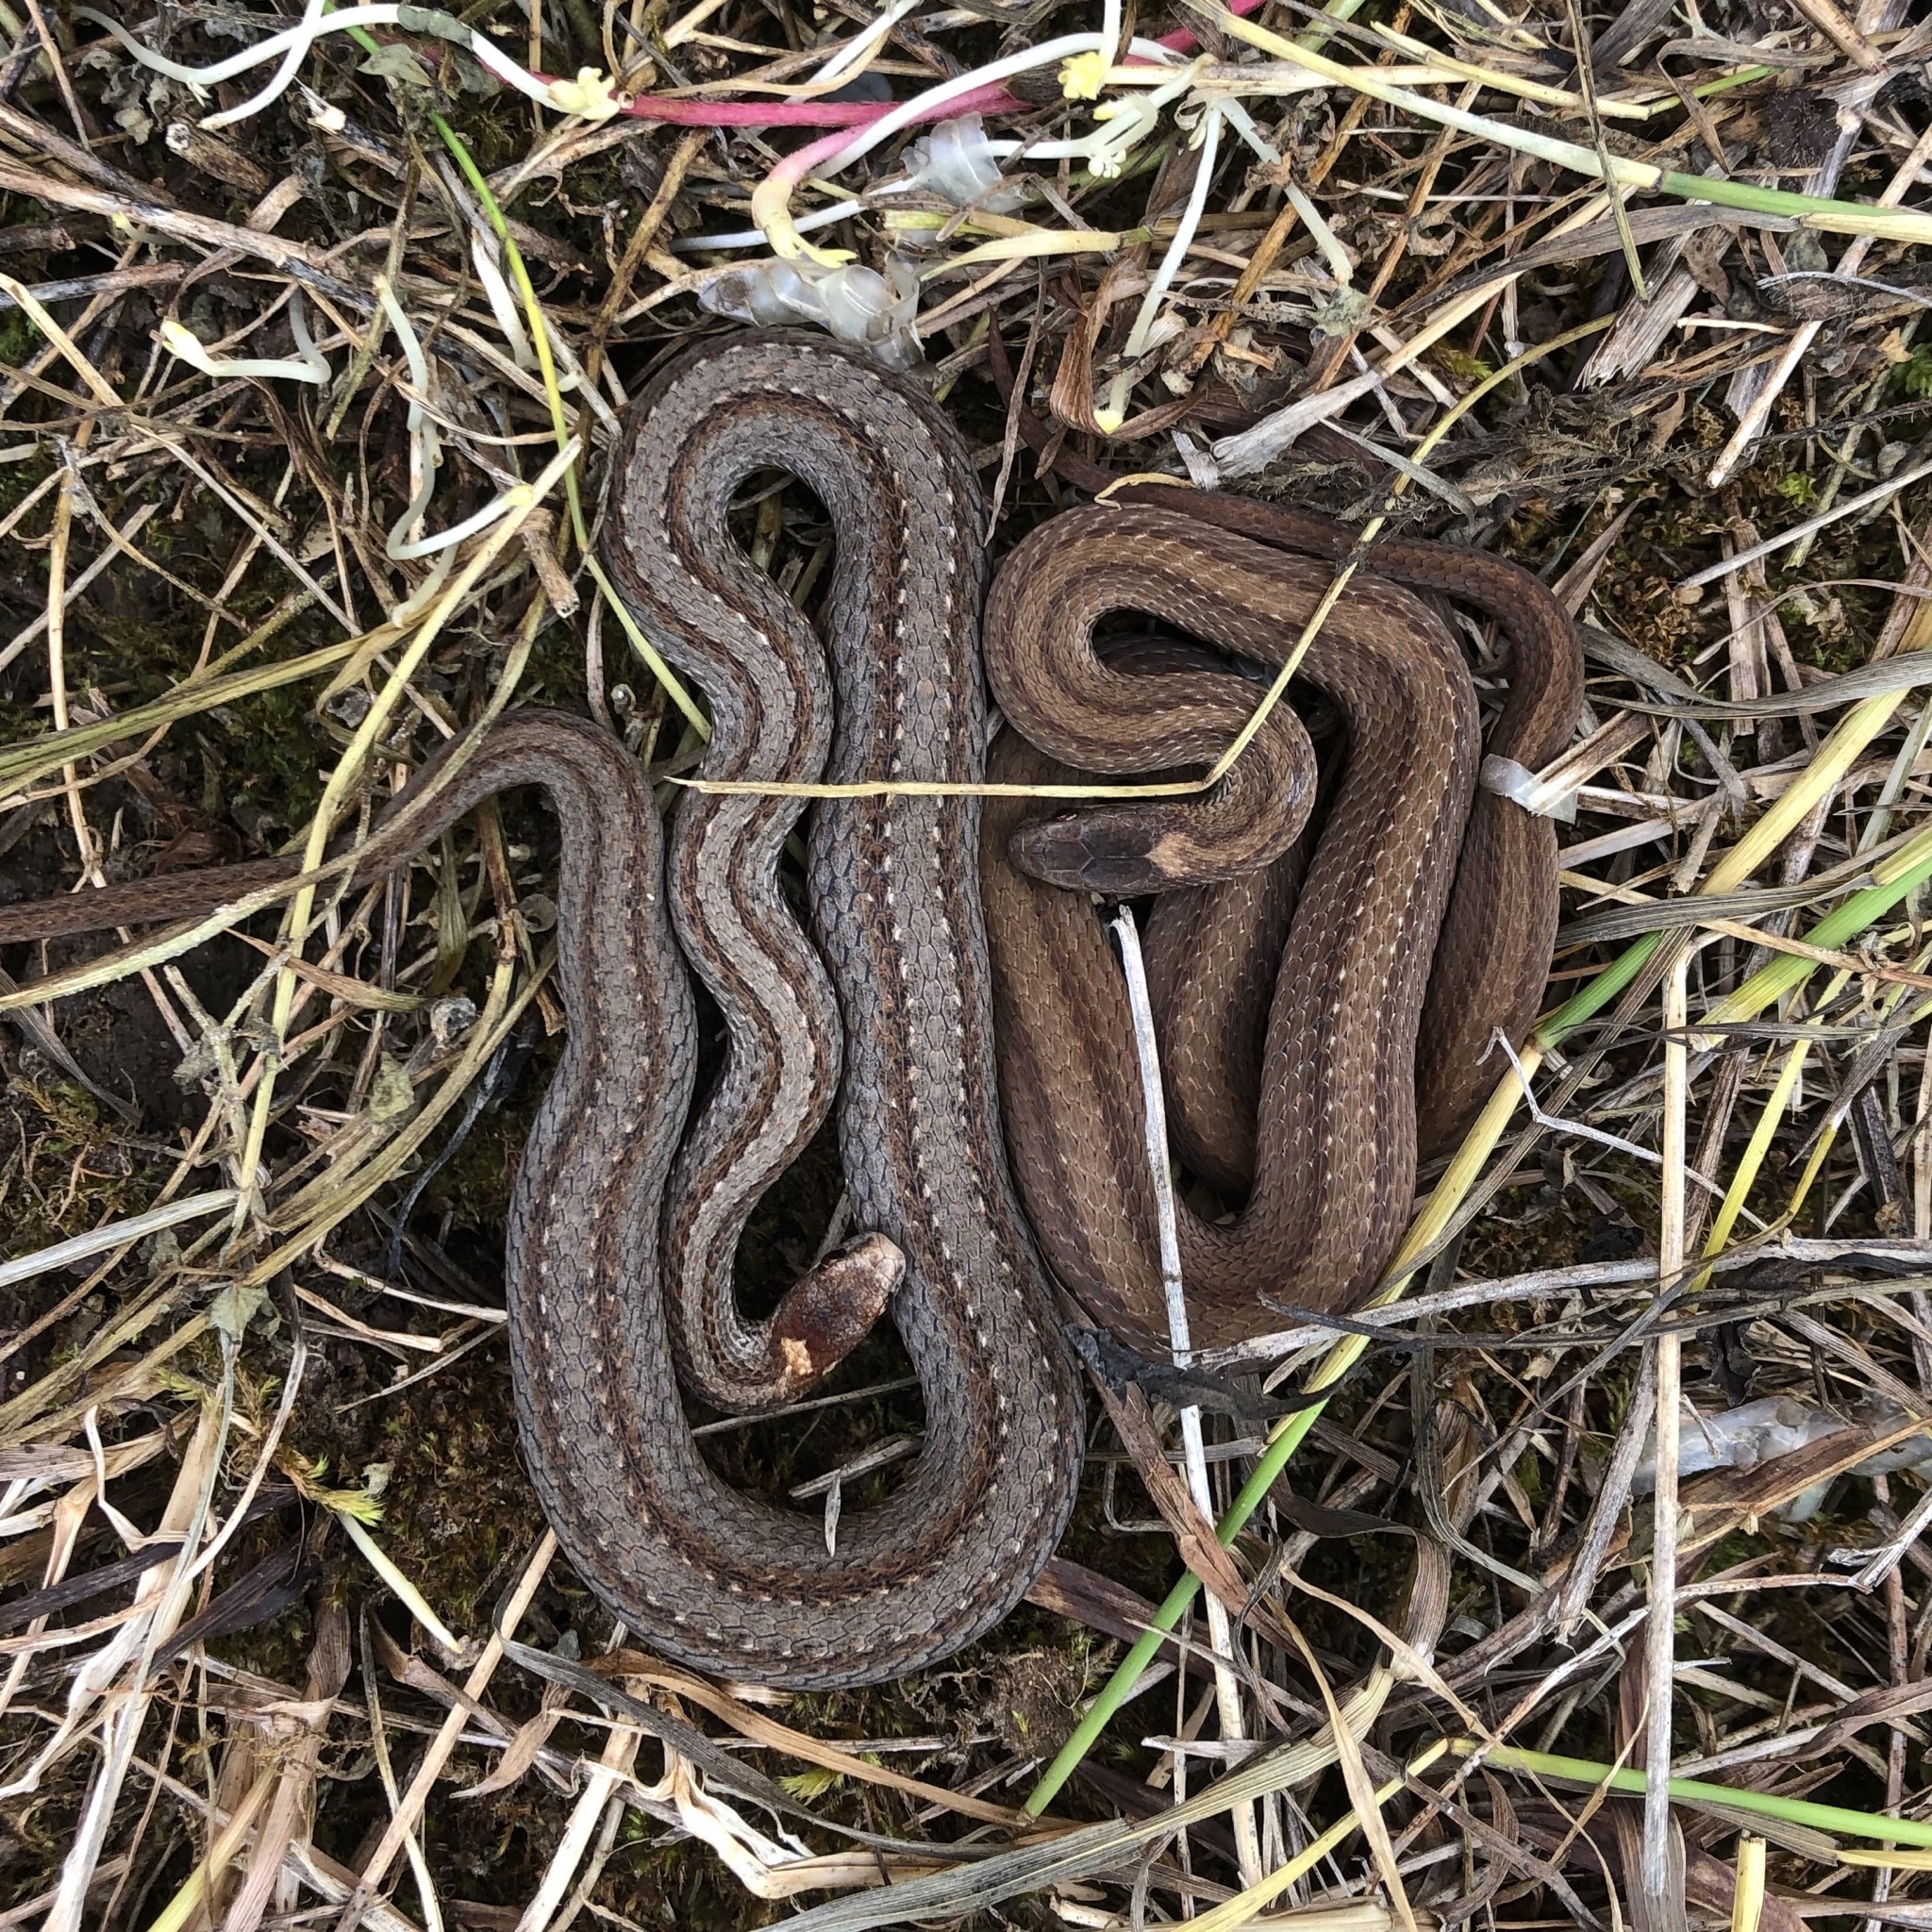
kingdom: Animalia
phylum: Chordata
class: Squamata
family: Colubridae
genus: Storeria
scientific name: Storeria occipitomaculata
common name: Redbelly snake
